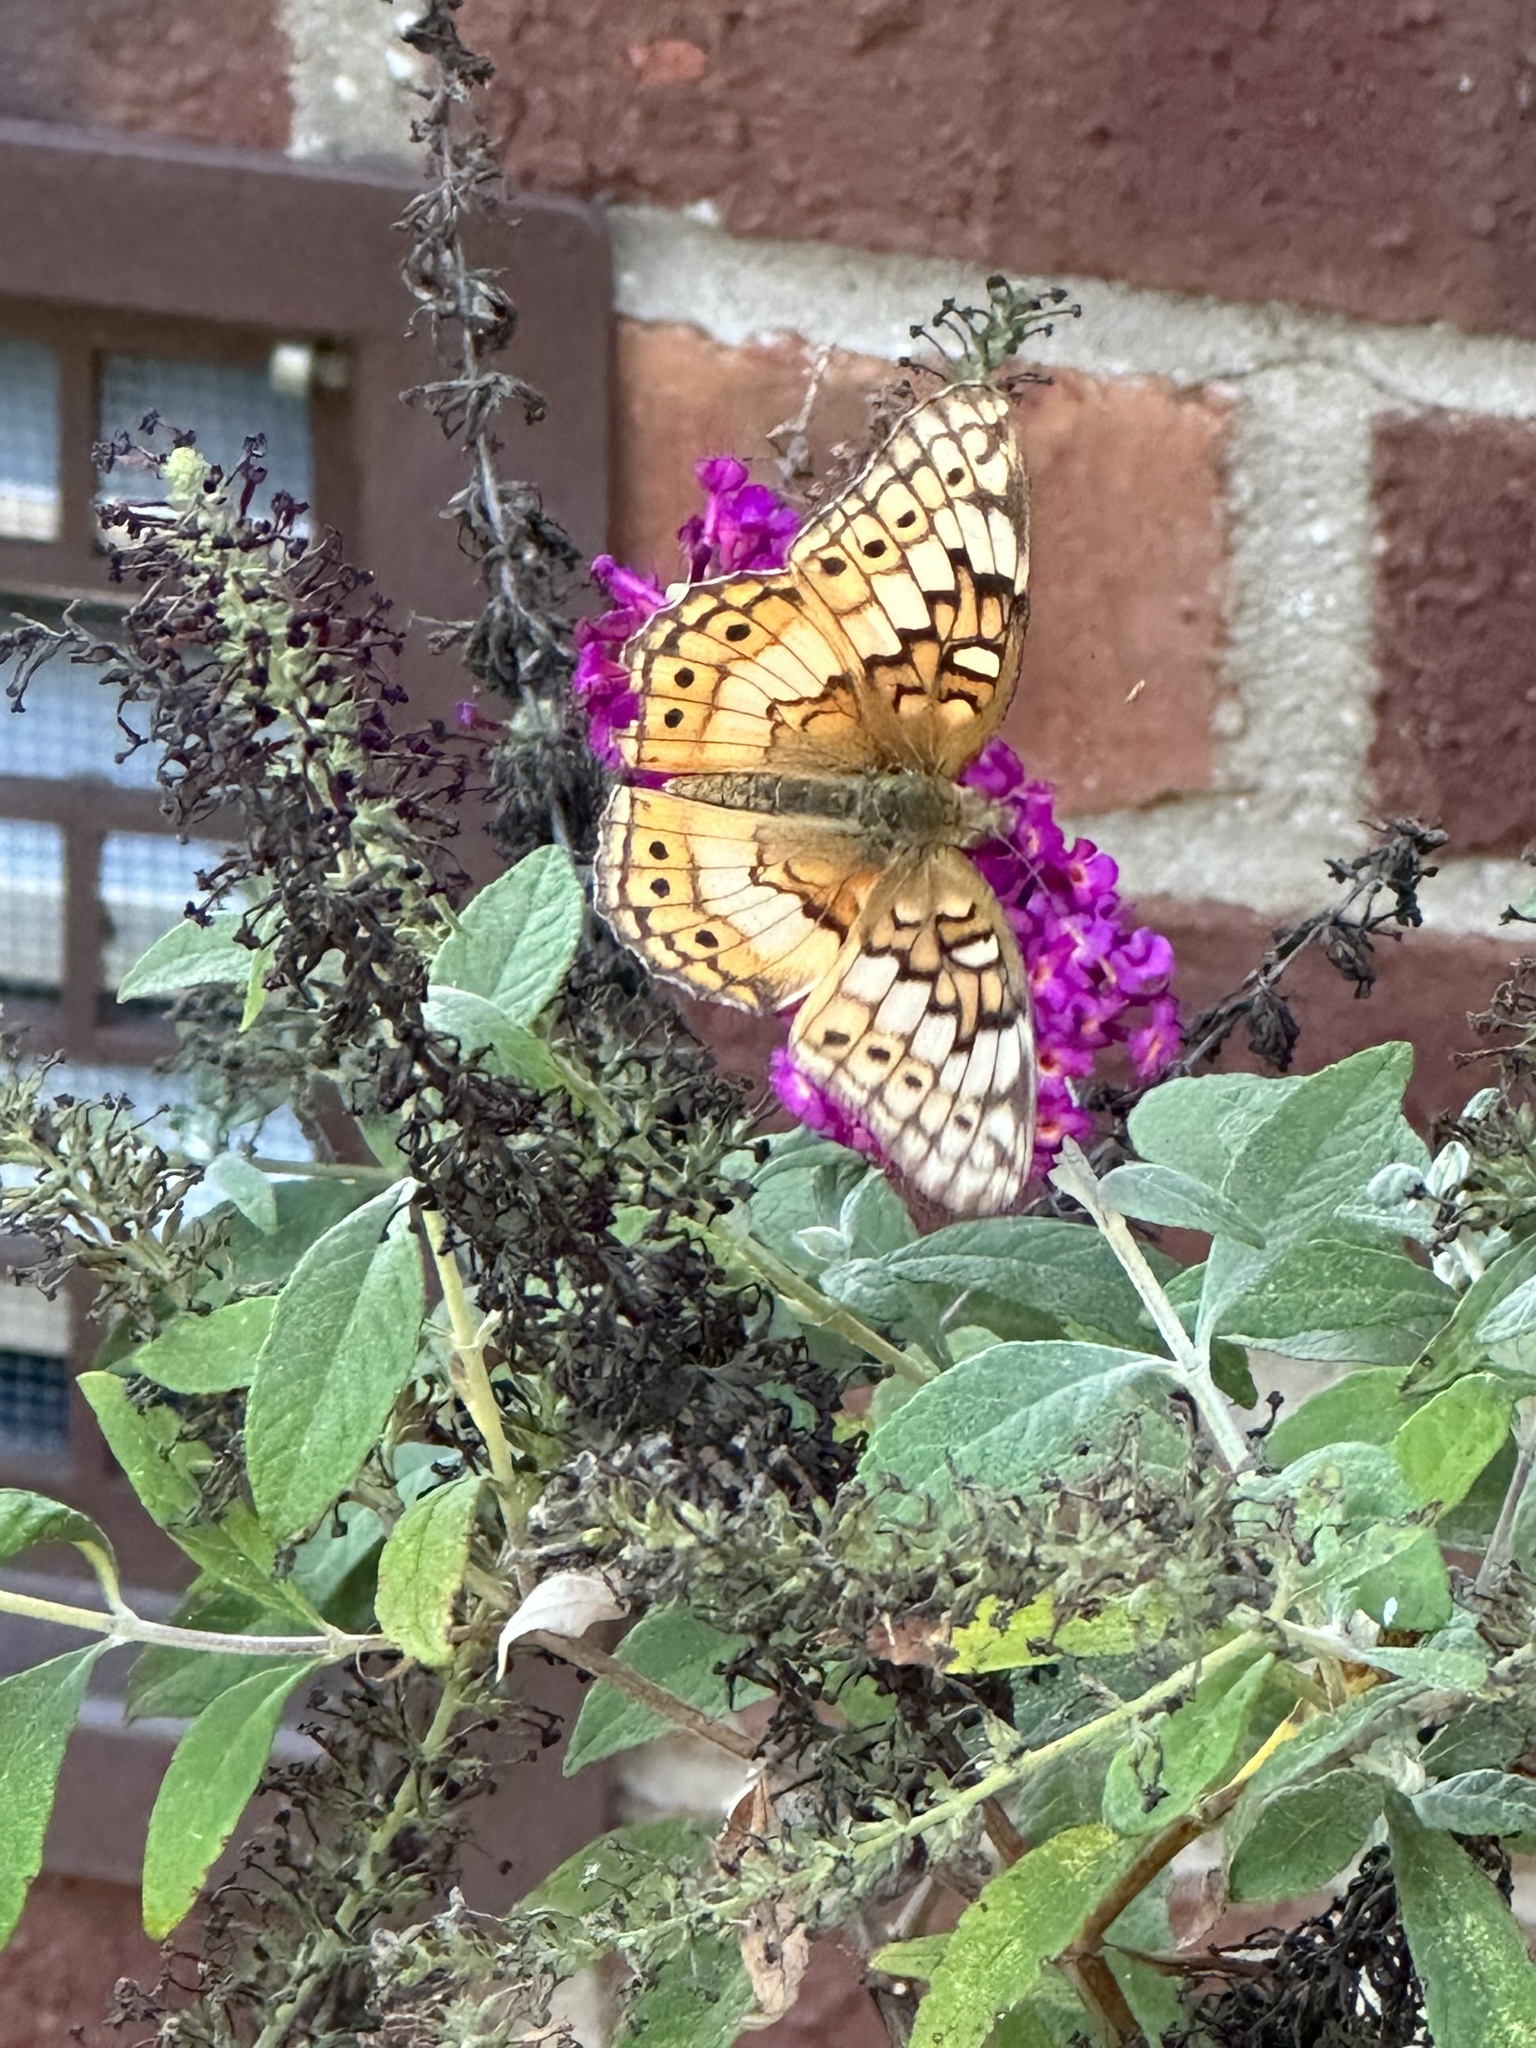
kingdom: Animalia
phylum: Arthropoda
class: Insecta
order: Lepidoptera
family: Nymphalidae
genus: Euptoieta
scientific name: Euptoieta claudia
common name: Variegated fritillary
